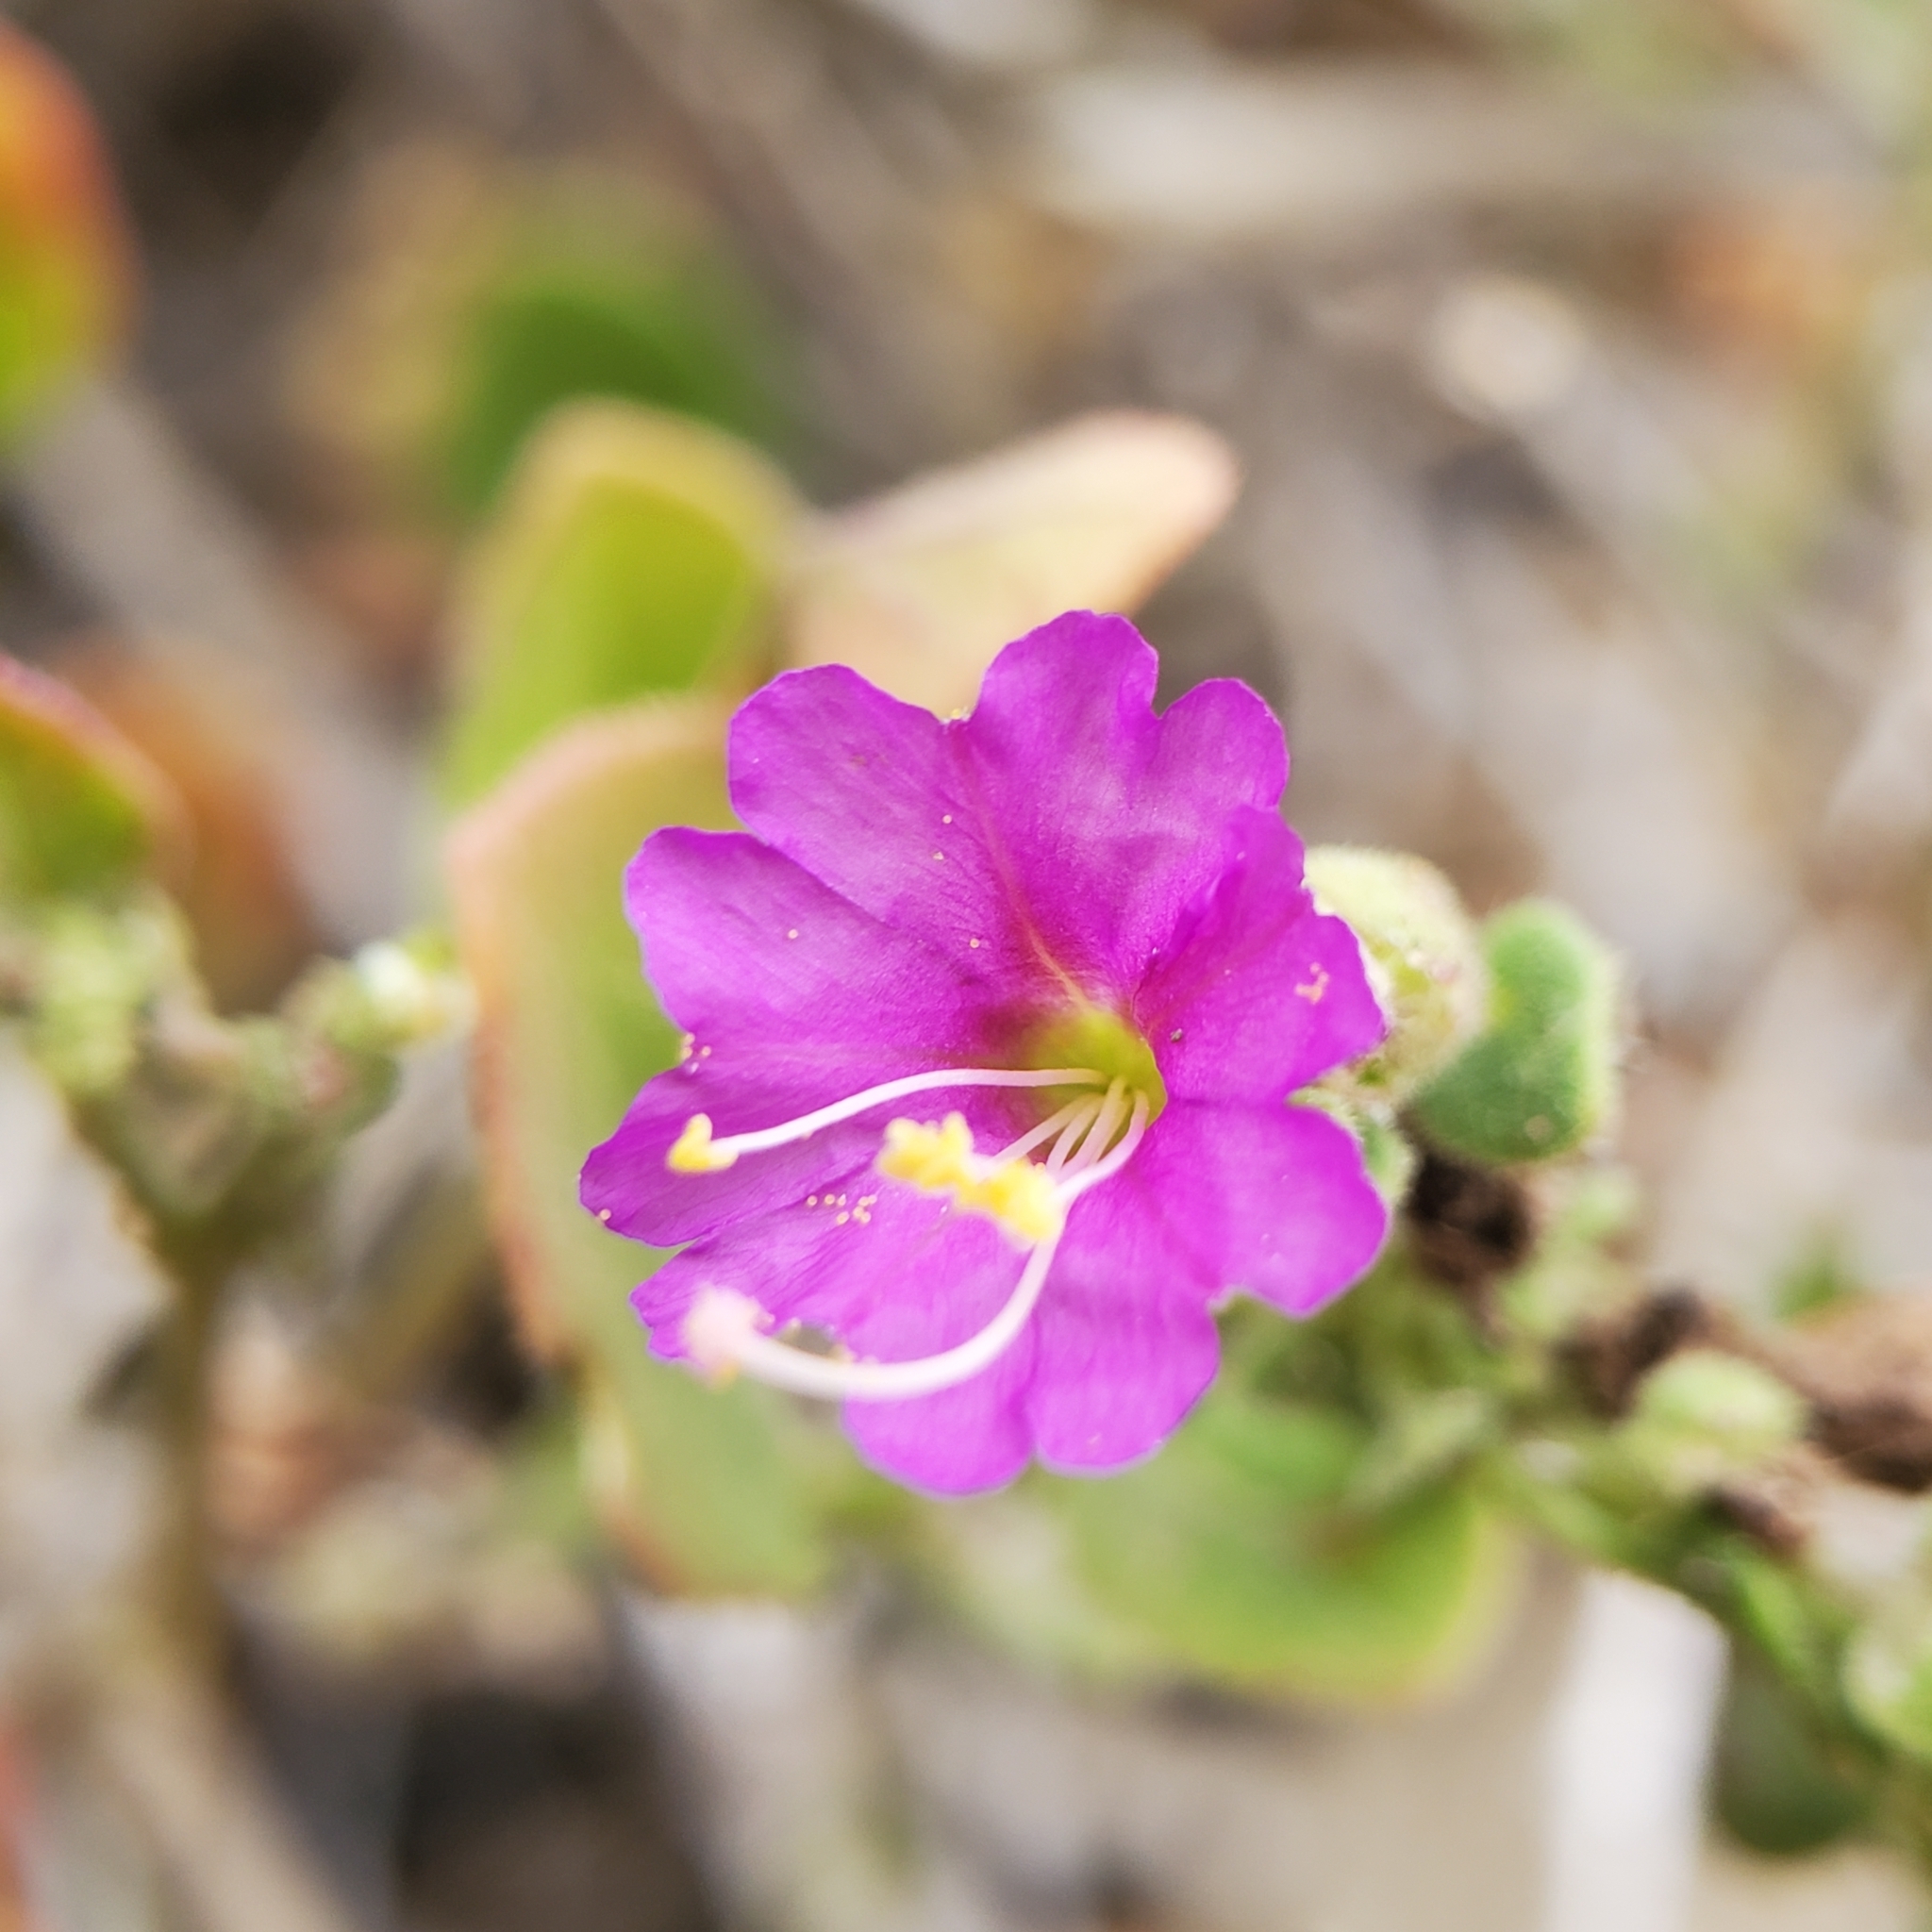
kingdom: Plantae
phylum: Tracheophyta
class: Magnoliopsida
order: Caryophyllales
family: Nyctaginaceae
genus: Mirabilis
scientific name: Mirabilis laevis
